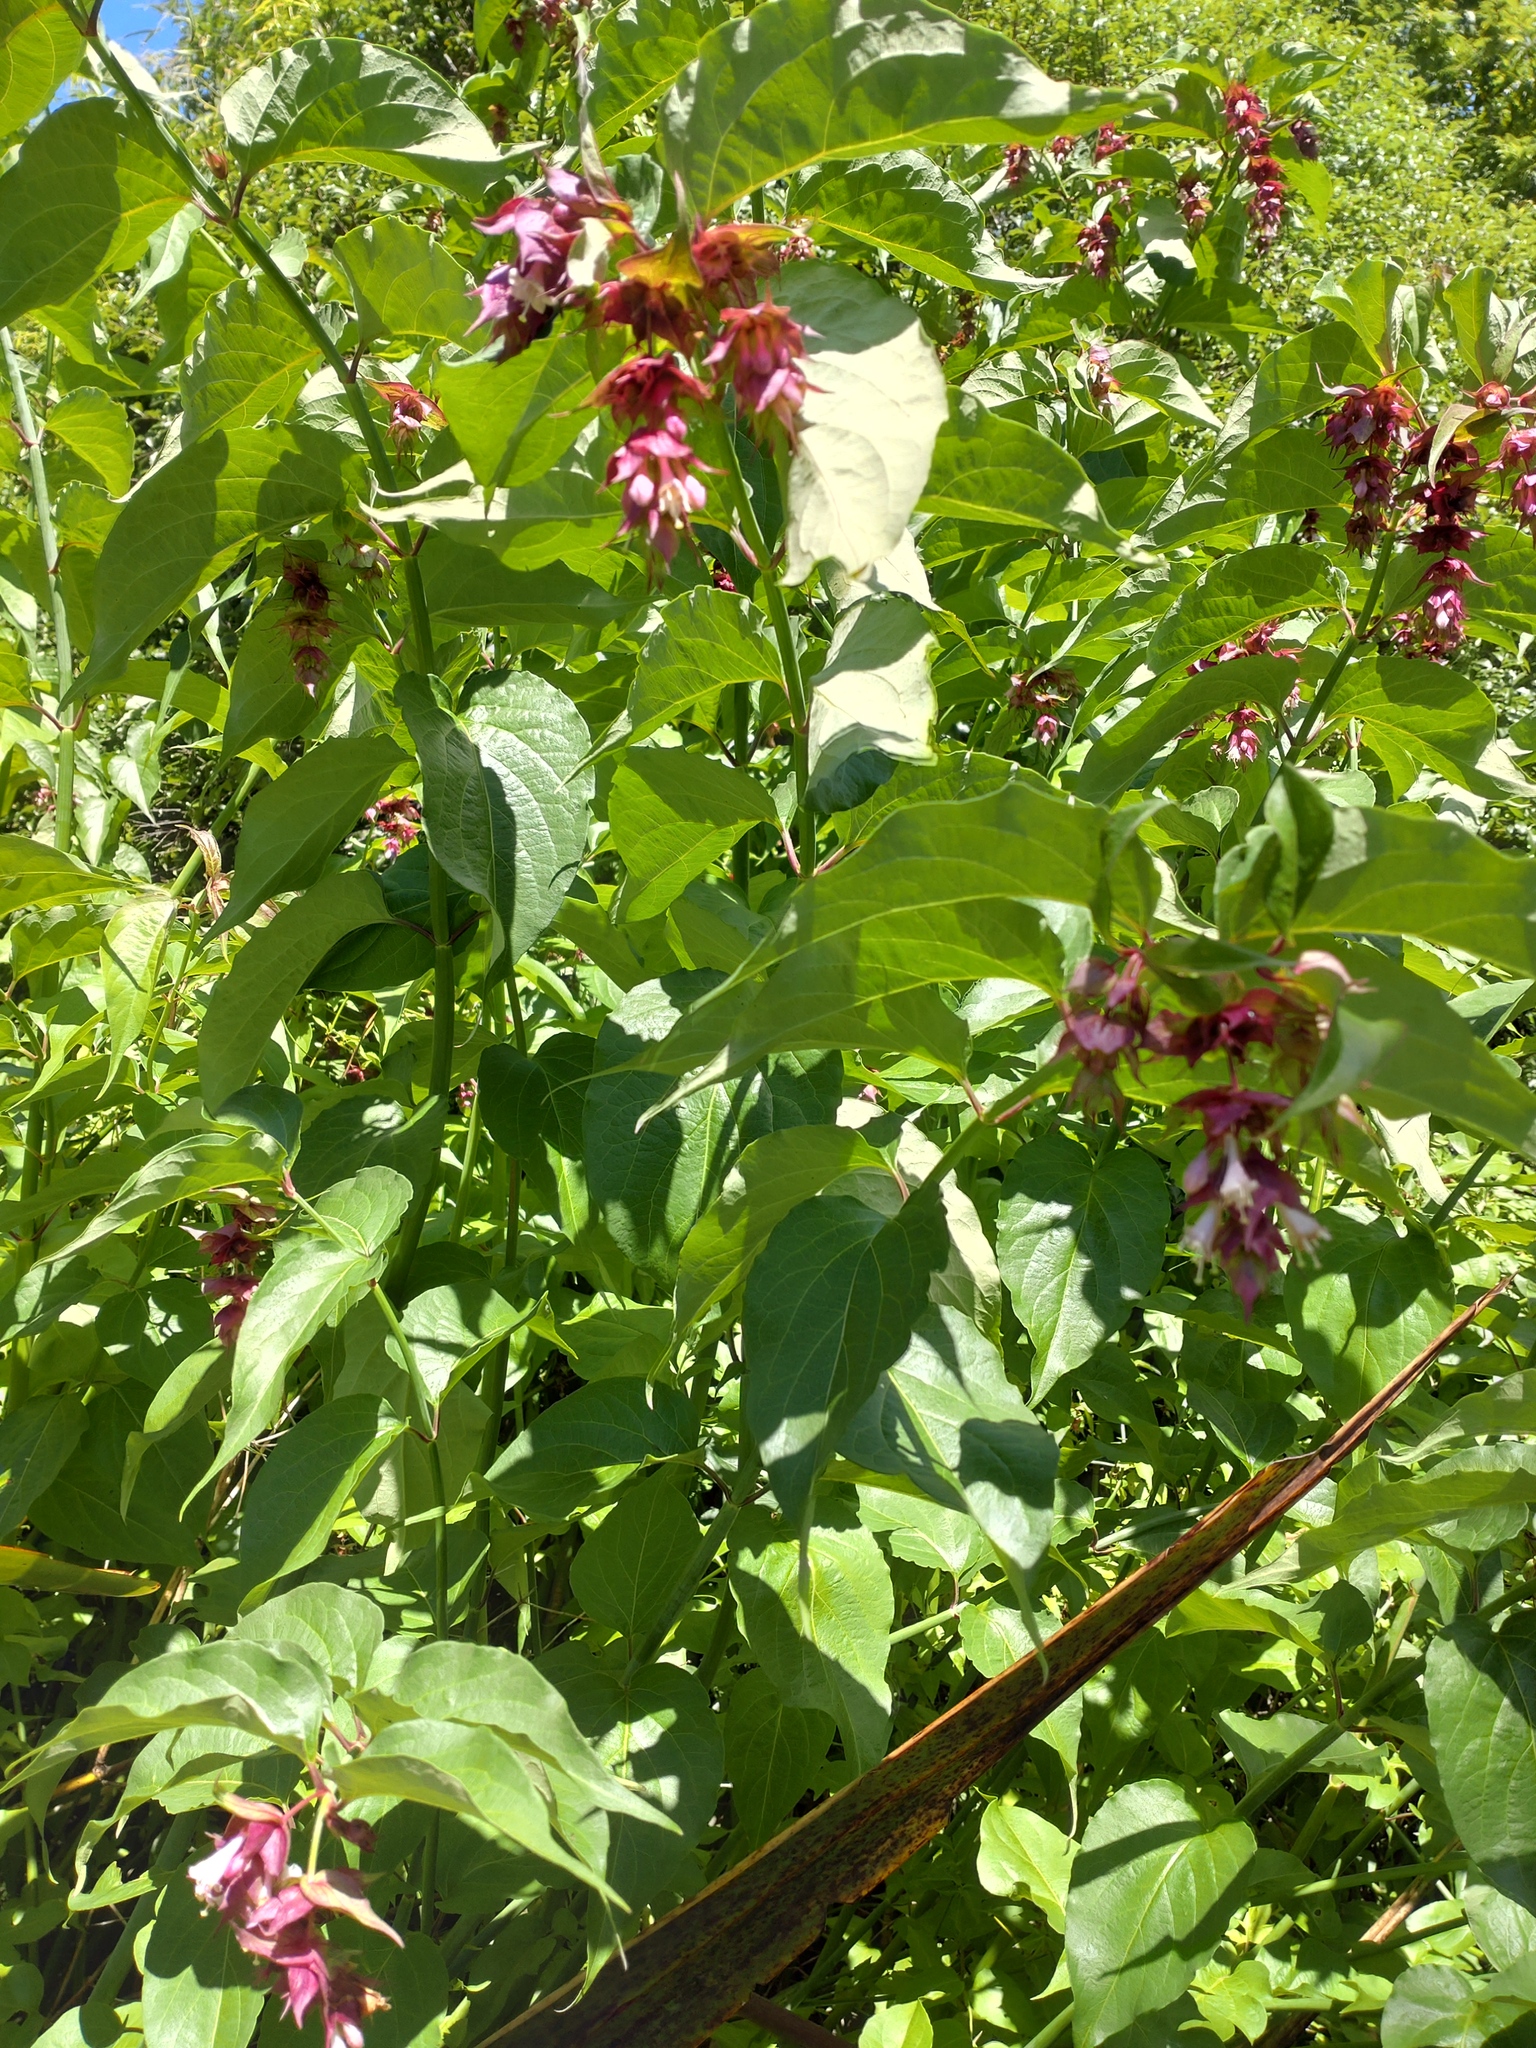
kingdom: Plantae
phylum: Tracheophyta
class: Magnoliopsida
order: Dipsacales
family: Caprifoliaceae
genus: Leycesteria
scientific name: Leycesteria formosa
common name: Himalayan honeysuckle
